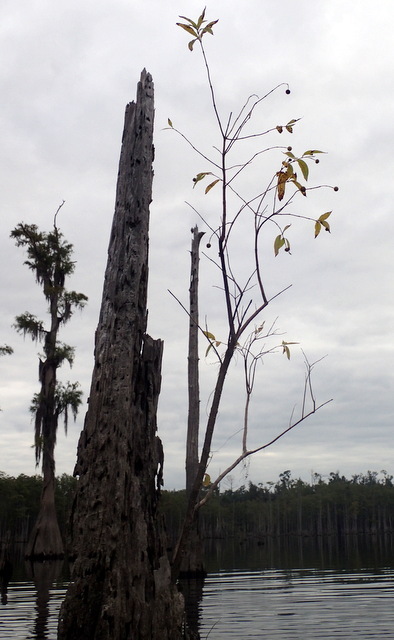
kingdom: Plantae
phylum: Tracheophyta
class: Magnoliopsida
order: Gentianales
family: Rubiaceae
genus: Cephalanthus
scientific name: Cephalanthus occidentalis
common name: Button-willow
